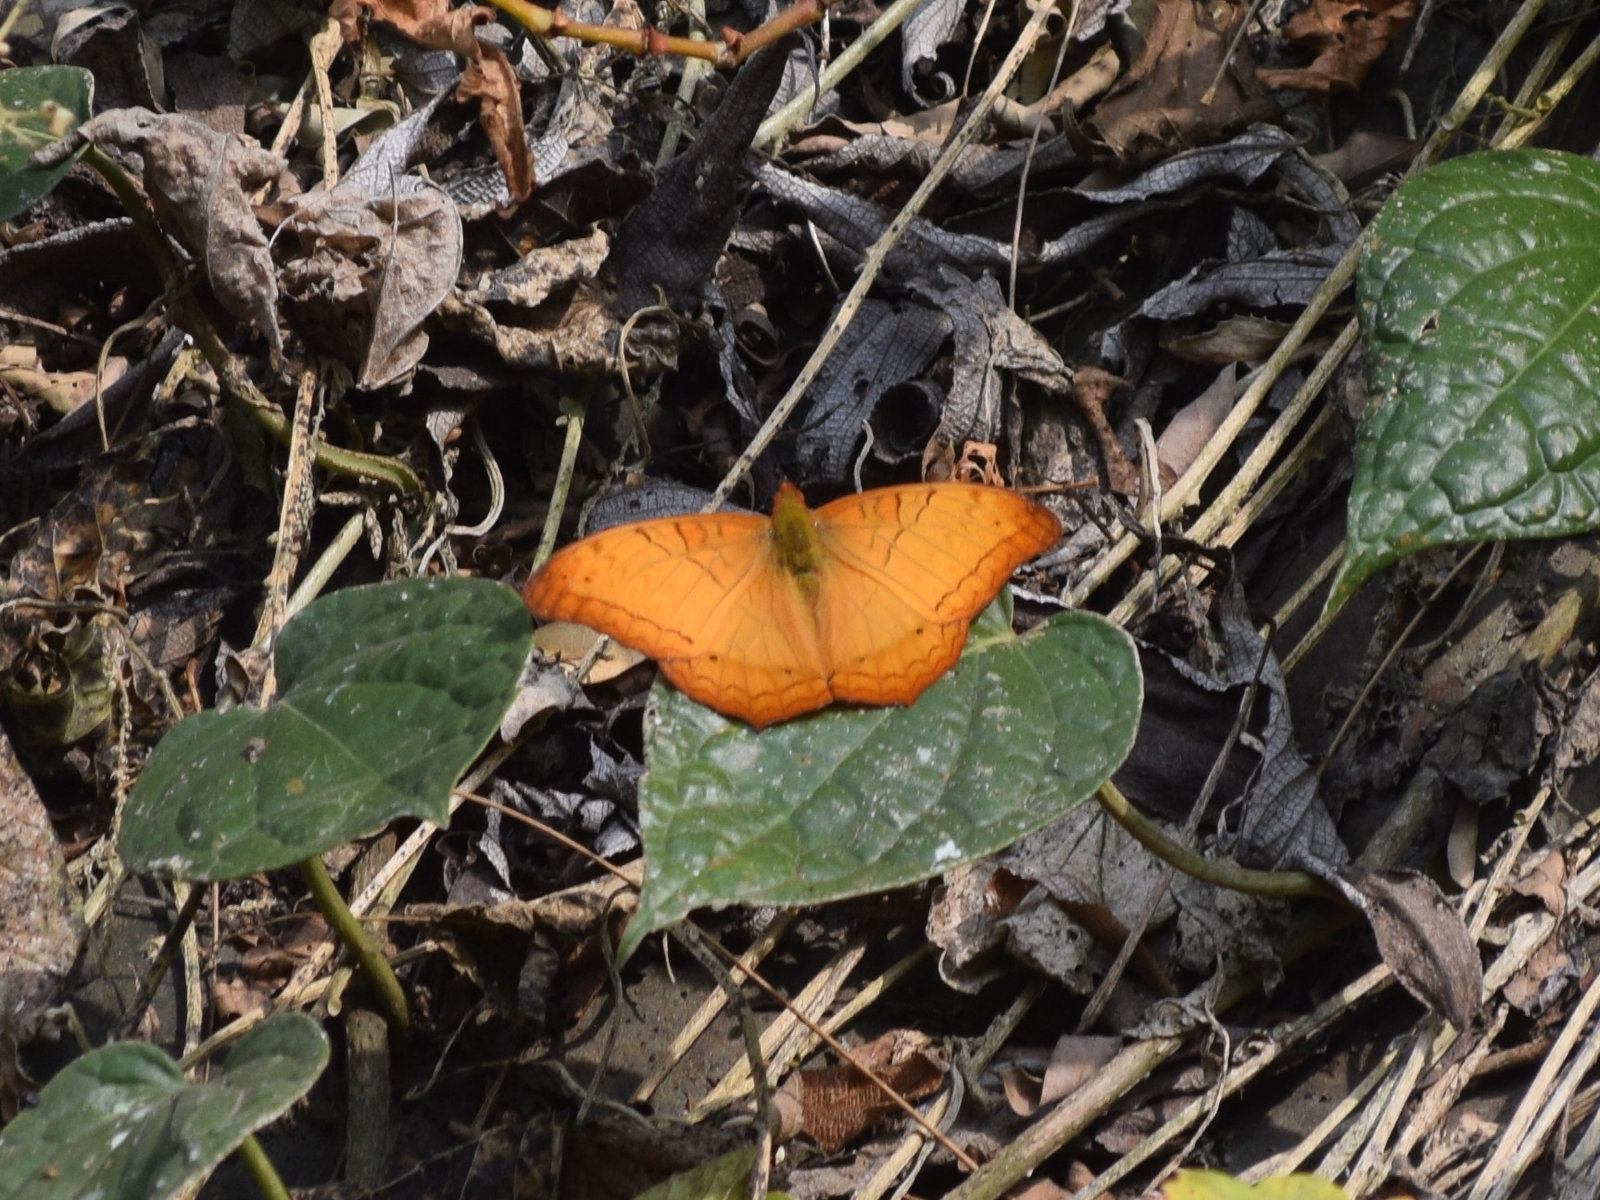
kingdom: Animalia
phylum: Arthropoda
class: Insecta
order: Lepidoptera
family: Nymphalidae
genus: Vindula
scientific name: Vindula erota
